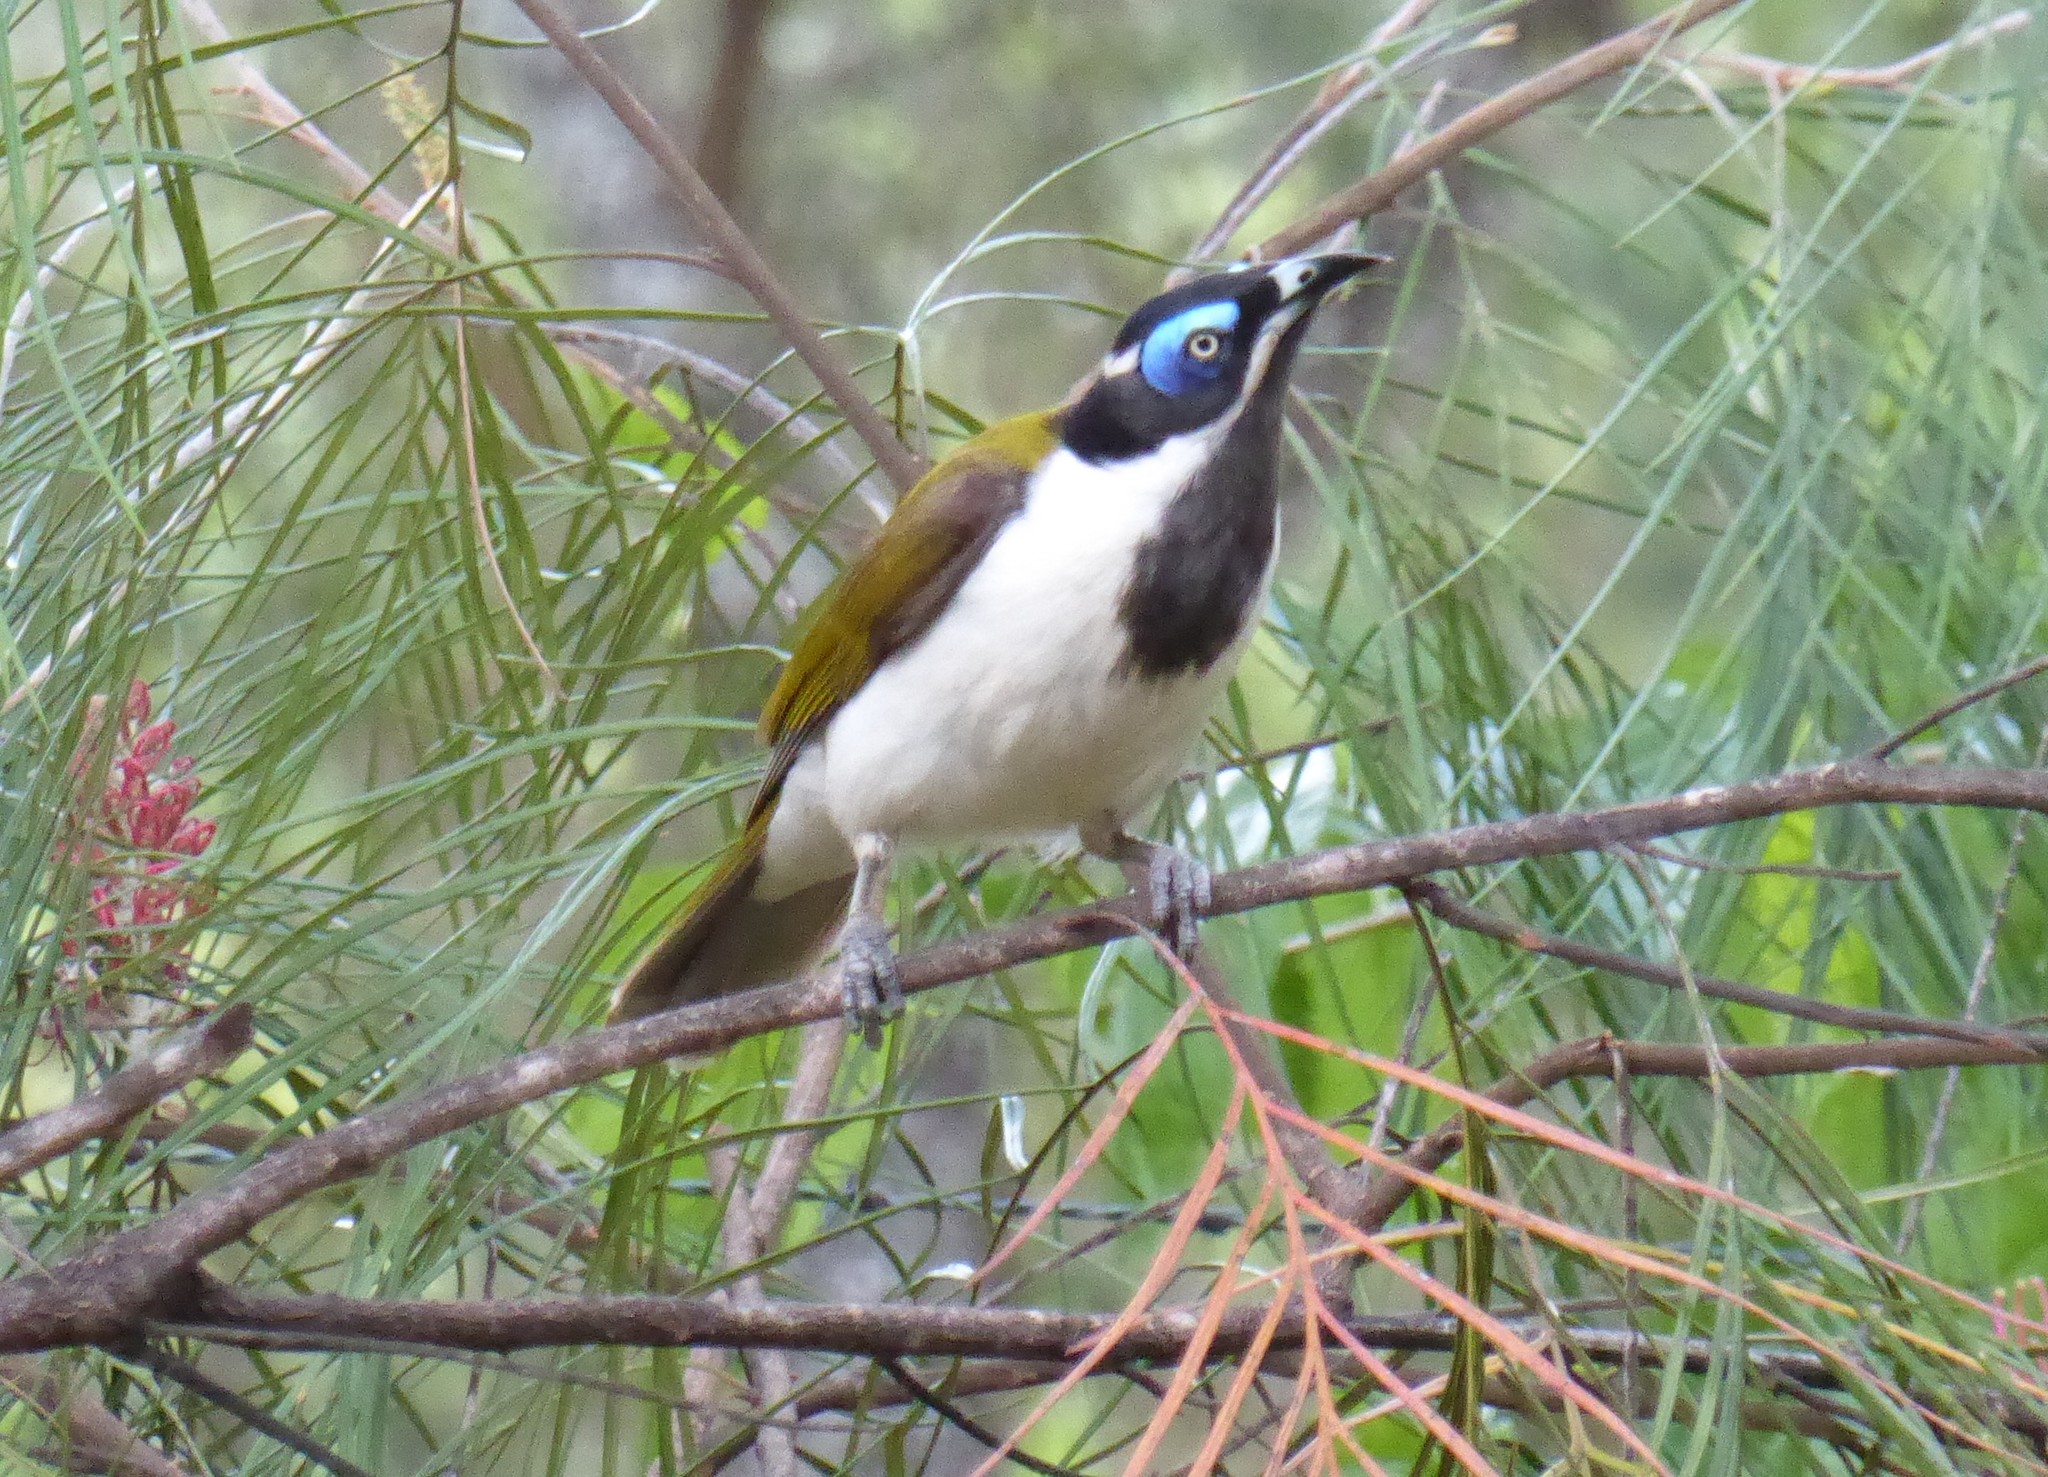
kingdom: Animalia
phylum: Chordata
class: Aves
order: Passeriformes
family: Meliphagidae
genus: Entomyzon
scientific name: Entomyzon cyanotis
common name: Blue-faced honeyeater
